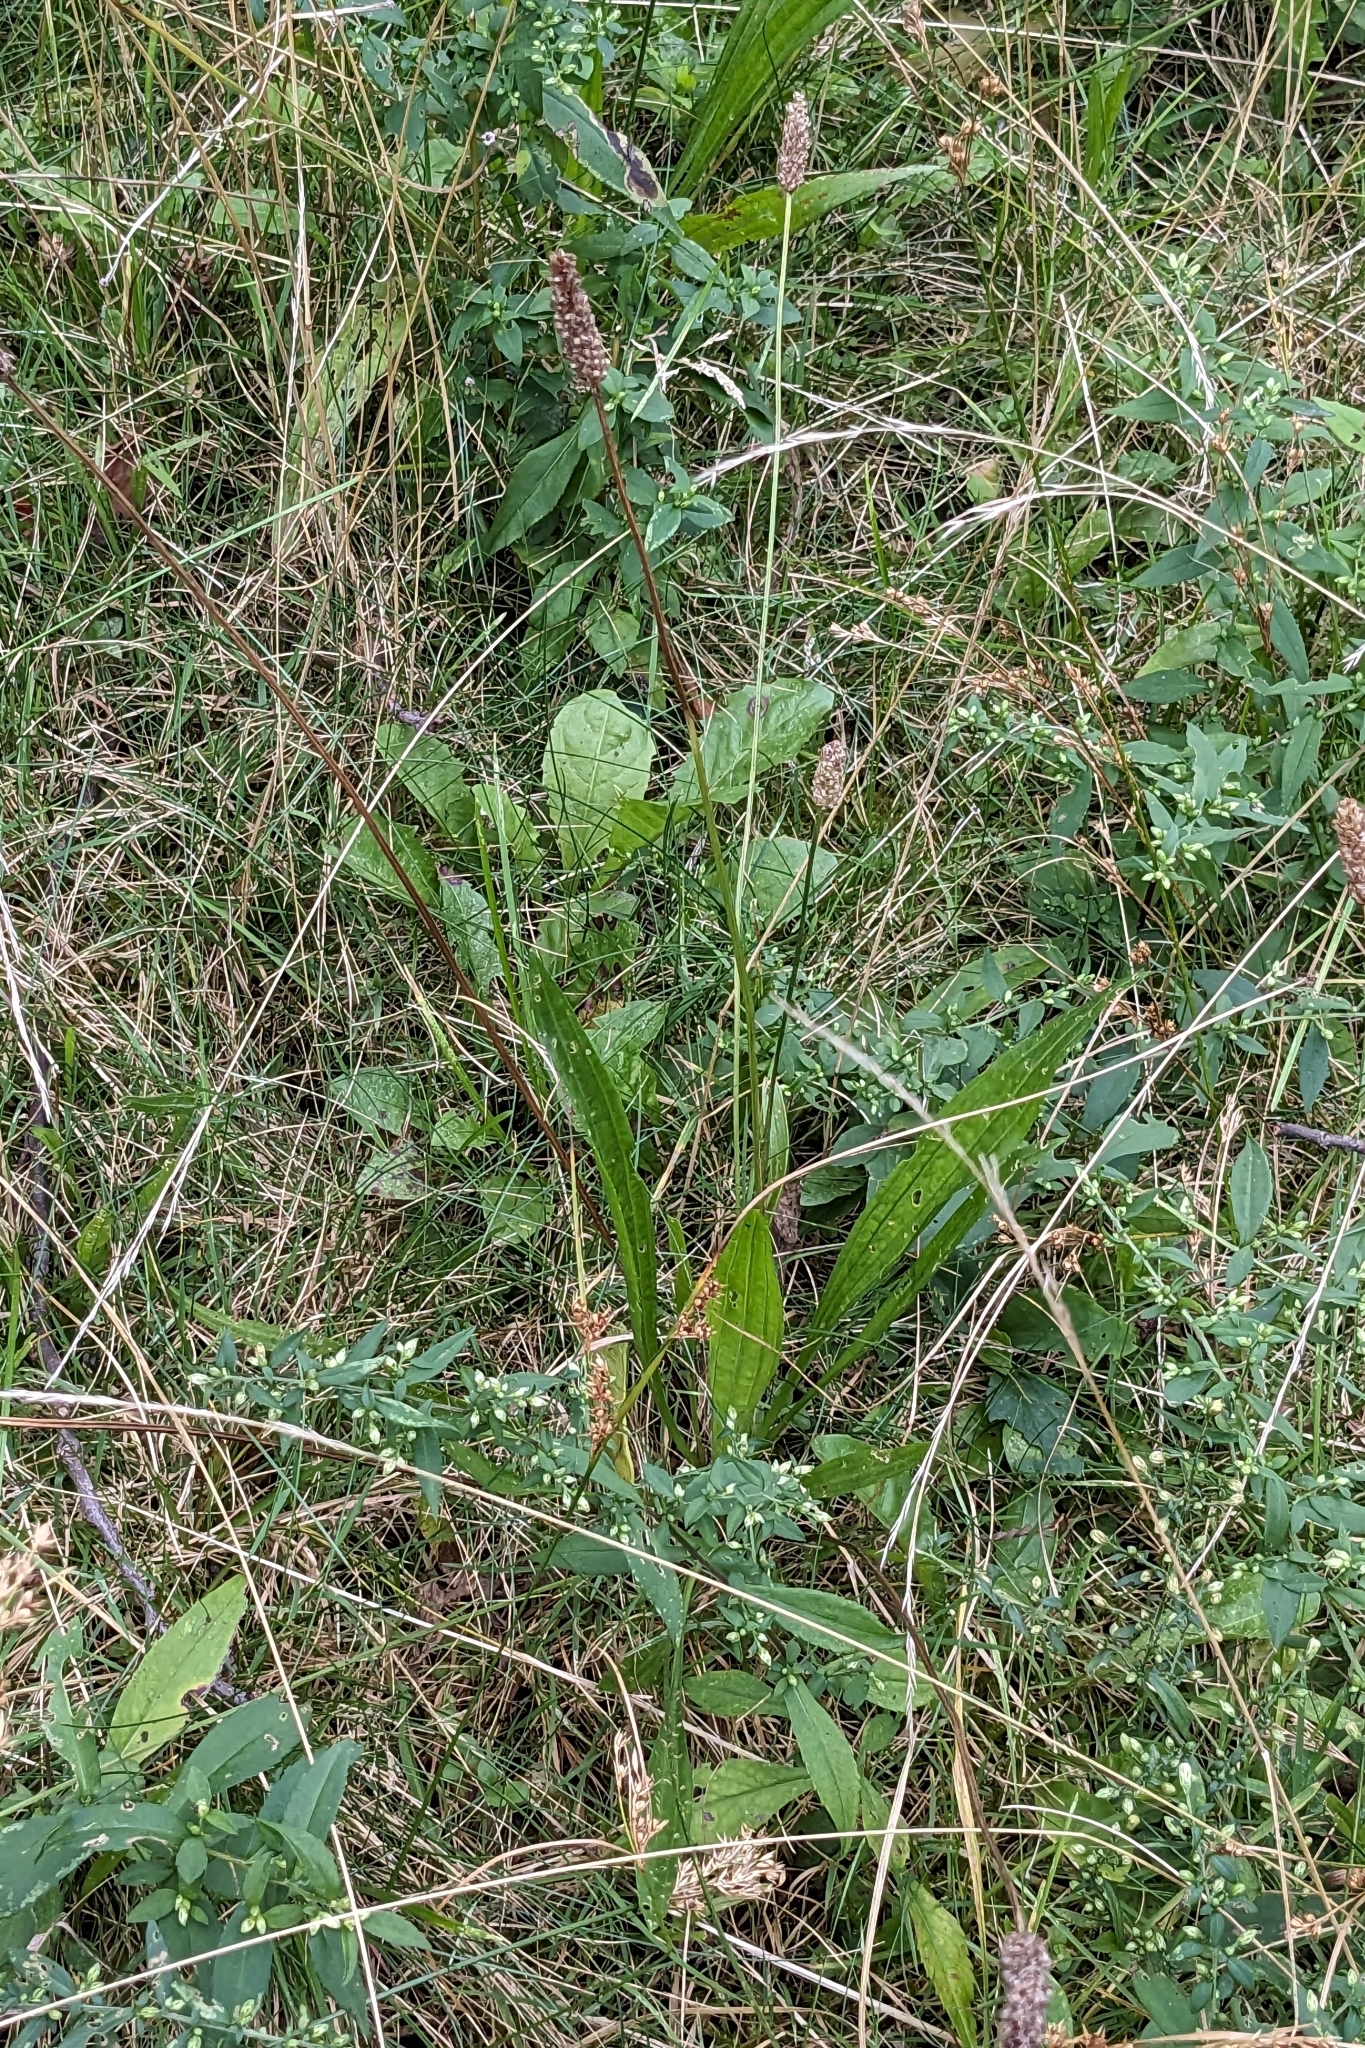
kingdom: Plantae
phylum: Tracheophyta
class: Magnoliopsida
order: Lamiales
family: Plantaginaceae
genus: Plantago
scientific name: Plantago lanceolata
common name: Ribwort plantain
